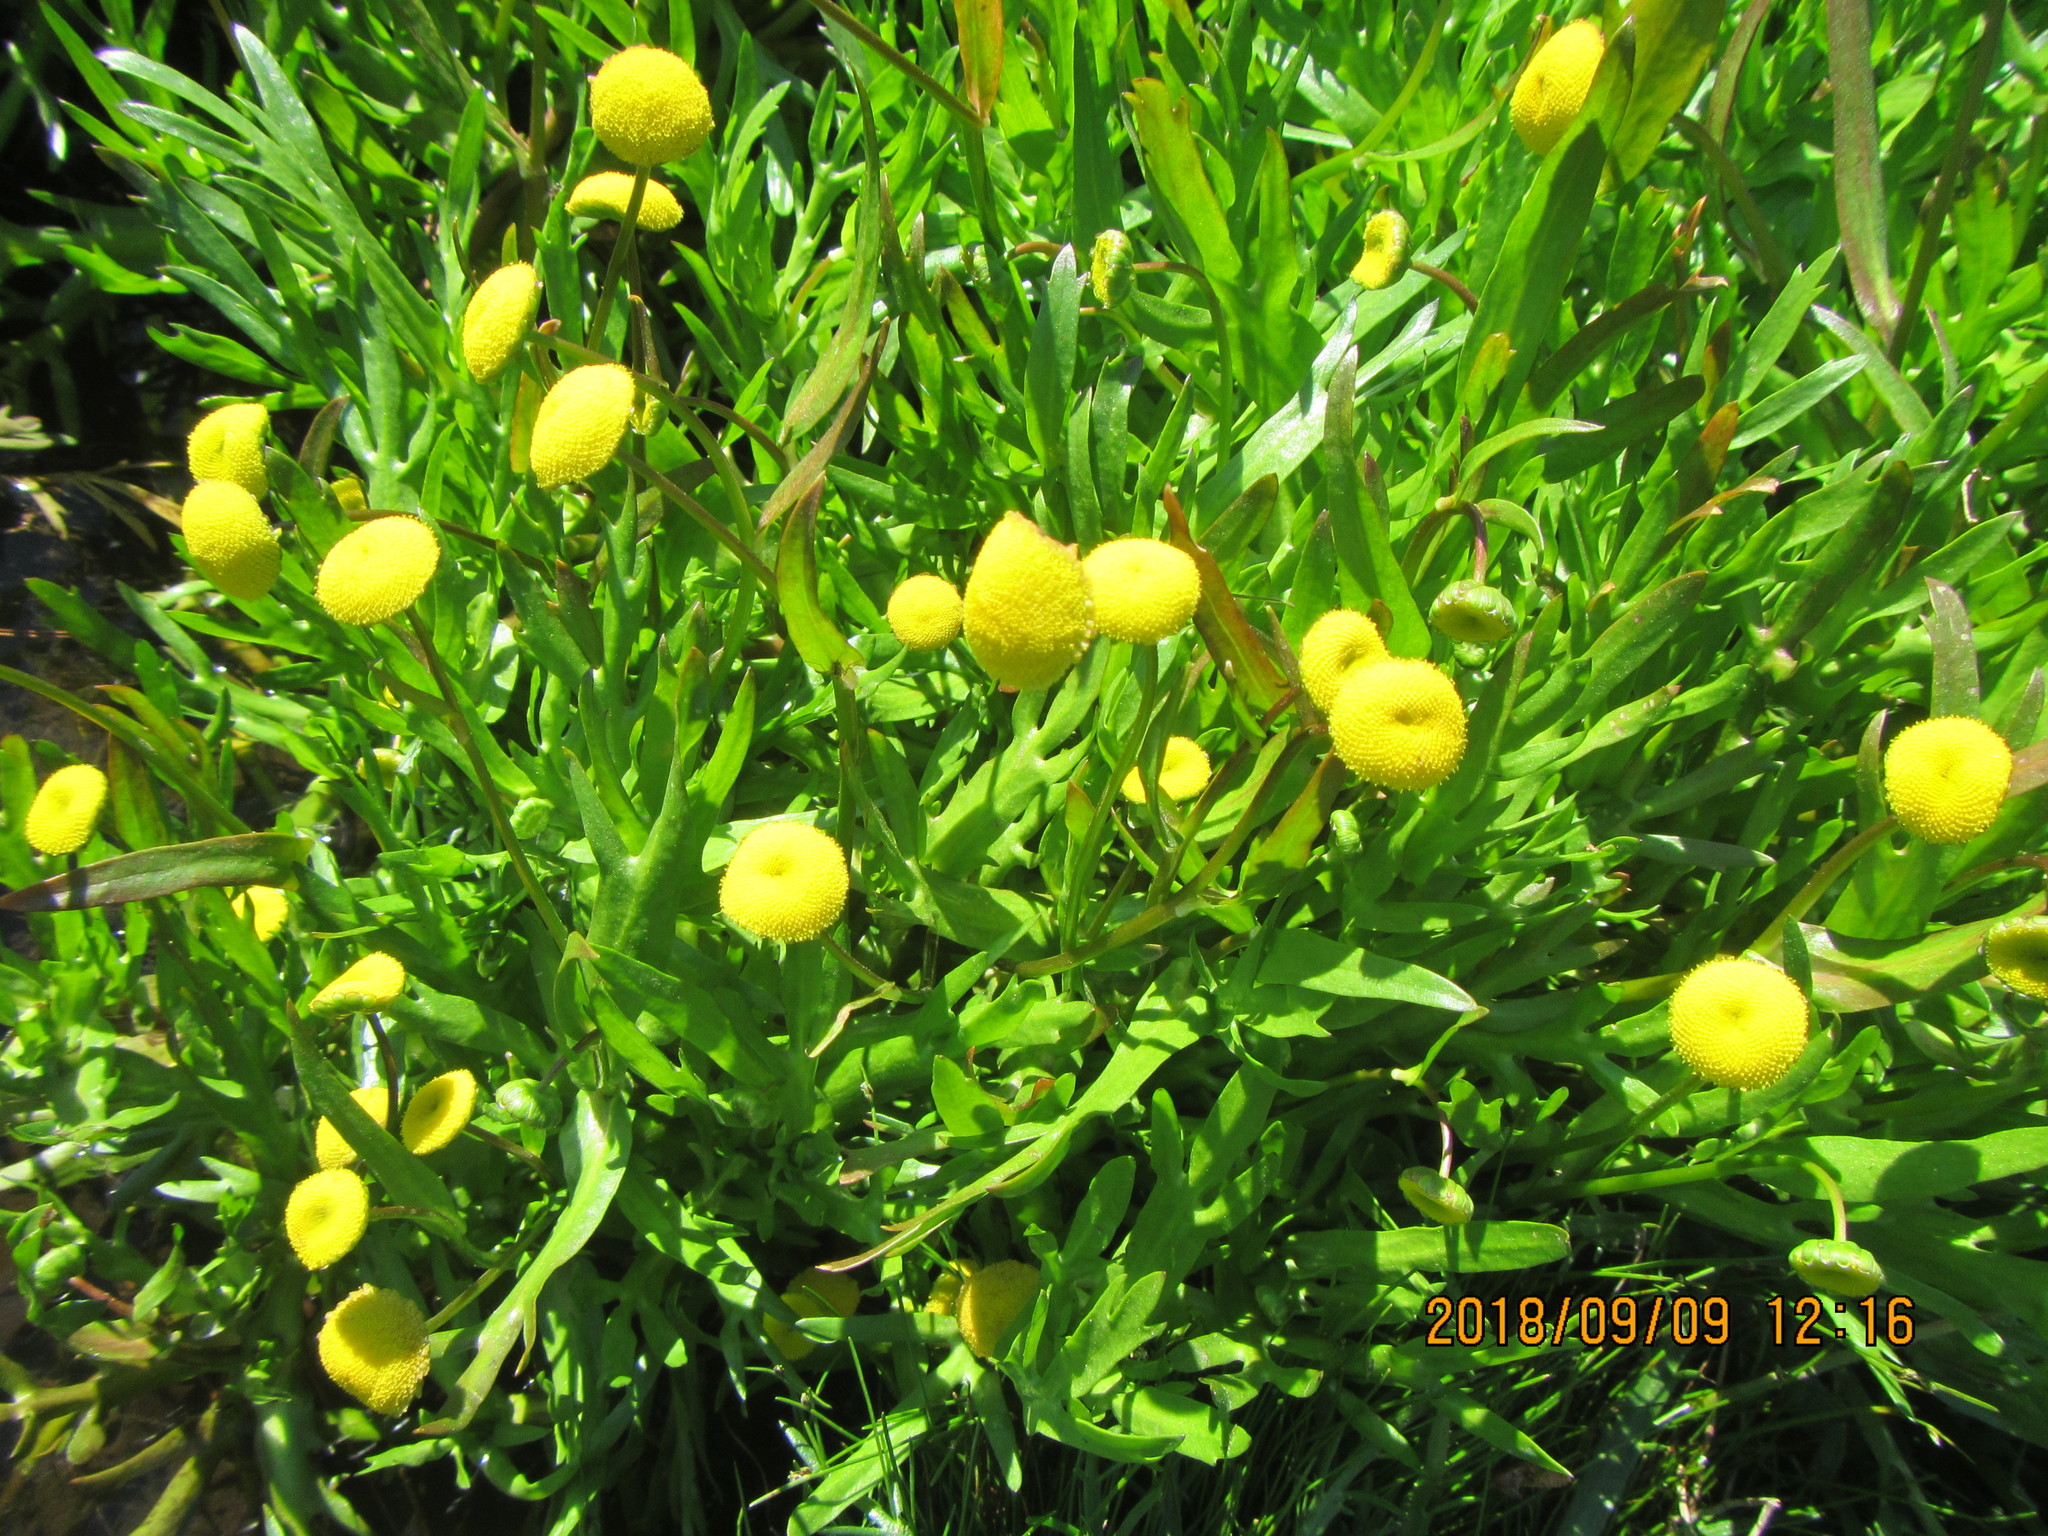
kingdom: Plantae
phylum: Tracheophyta
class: Magnoliopsida
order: Asterales
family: Asteraceae
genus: Cotula
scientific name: Cotula australis
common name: Australian waterbuttons
